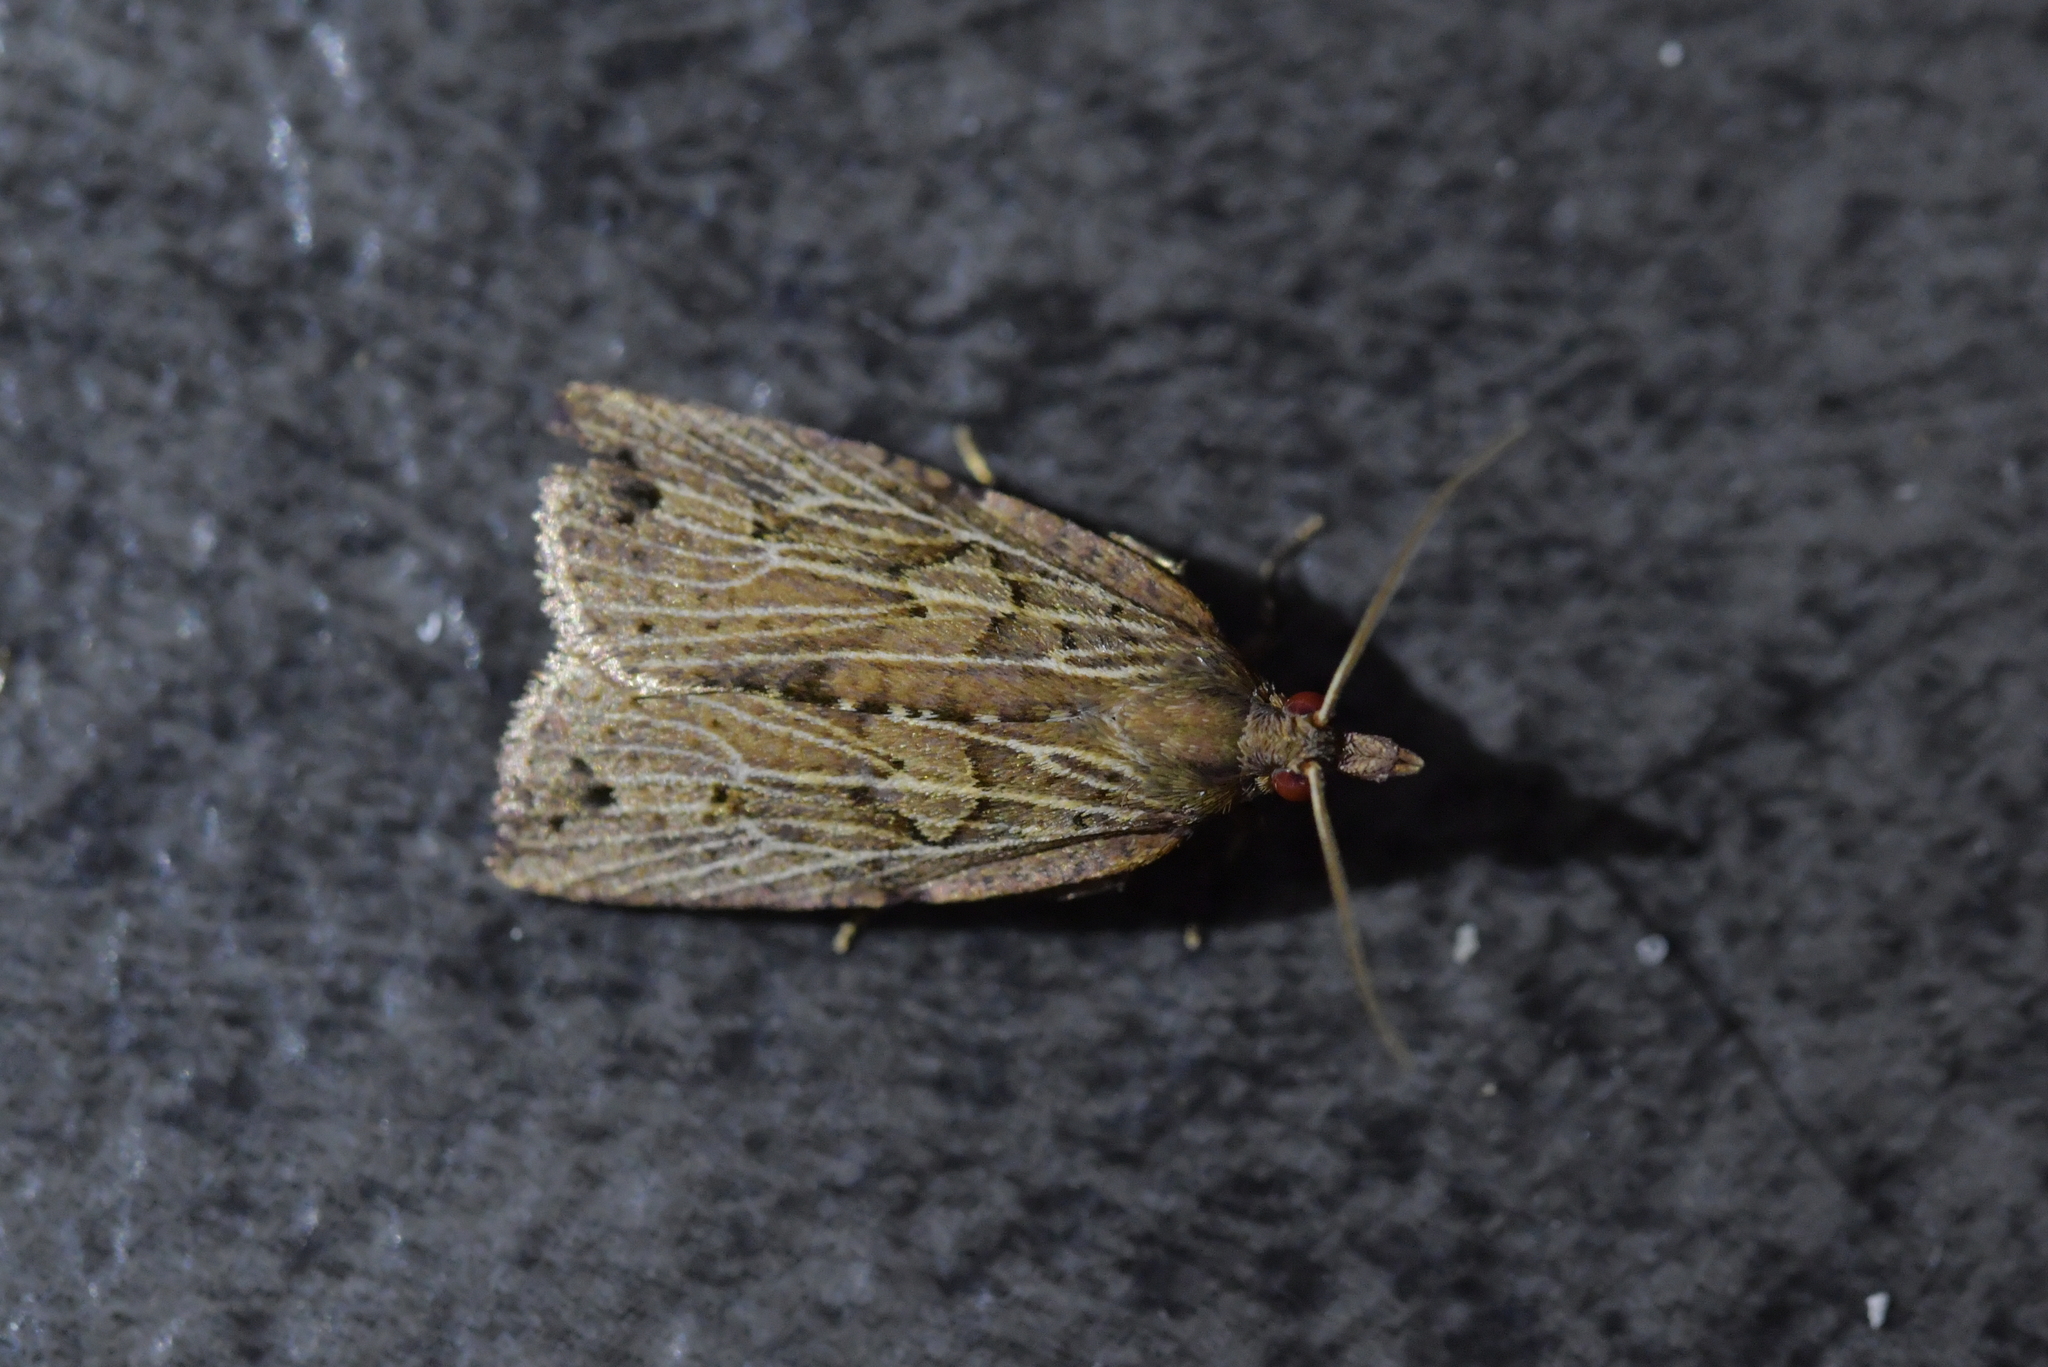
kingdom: Animalia
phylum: Arthropoda
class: Insecta
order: Lepidoptera
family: Tortricidae
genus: Planotortrix
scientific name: Planotortrix notophaea
